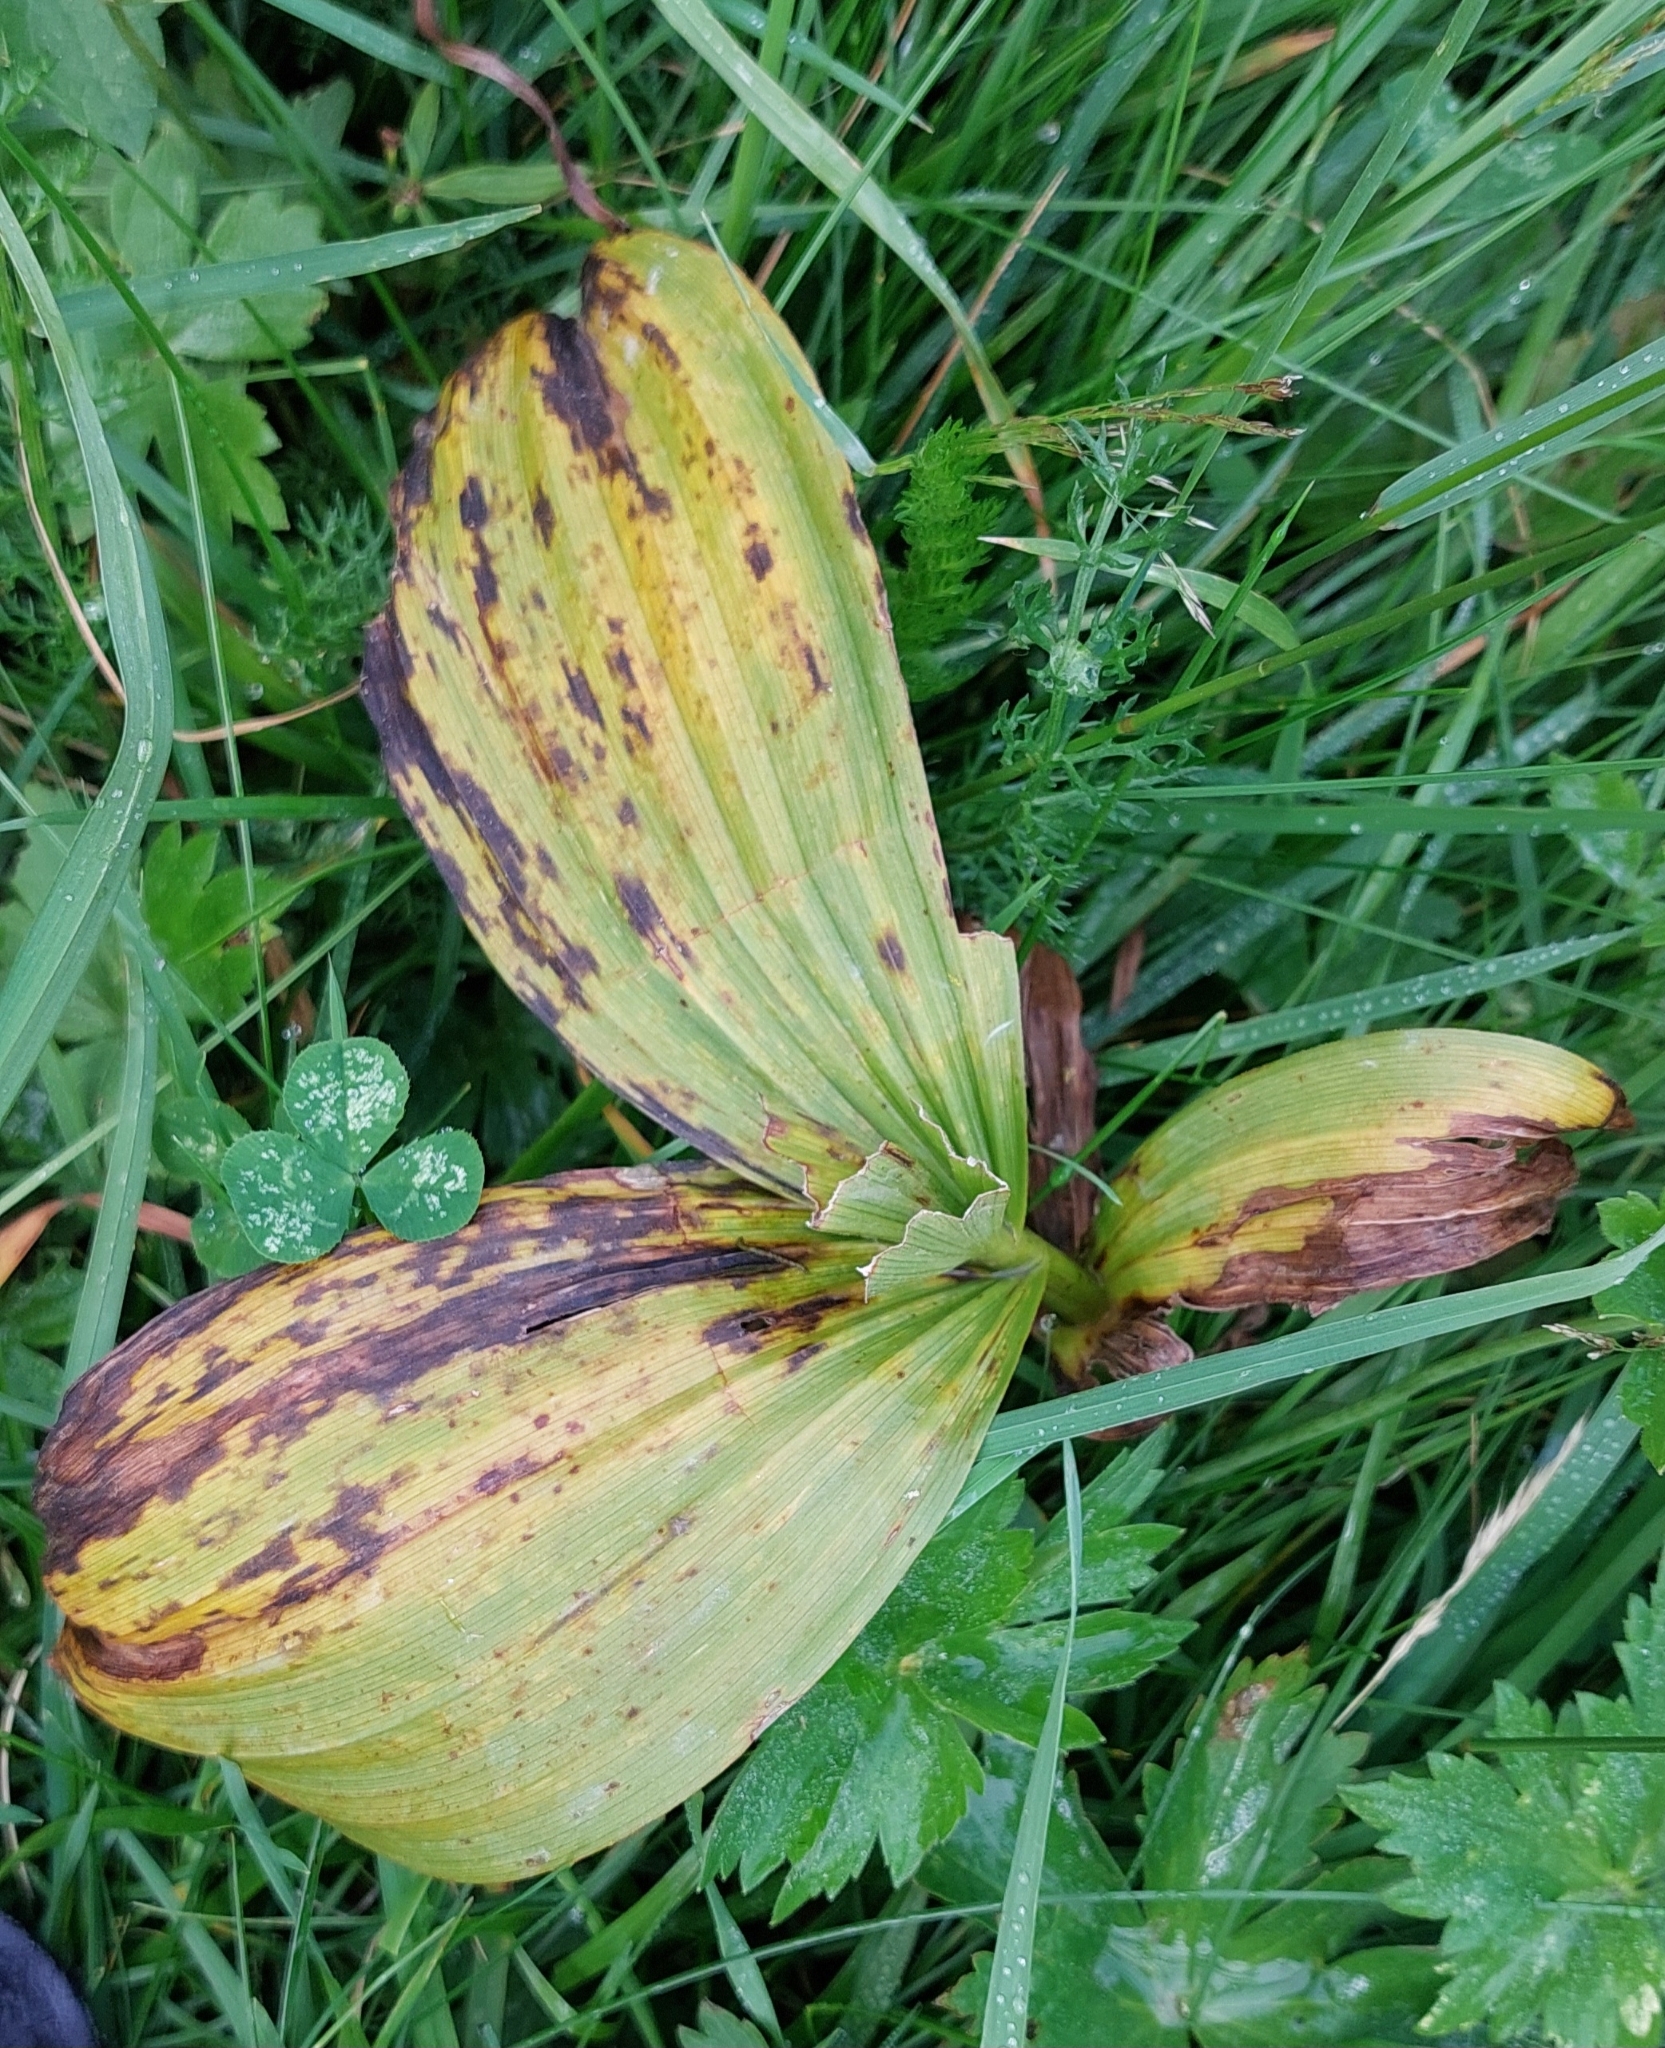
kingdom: Plantae
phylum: Tracheophyta
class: Liliopsida
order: Liliales
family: Melanthiaceae
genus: Veratrum
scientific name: Veratrum album
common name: White veratrum
